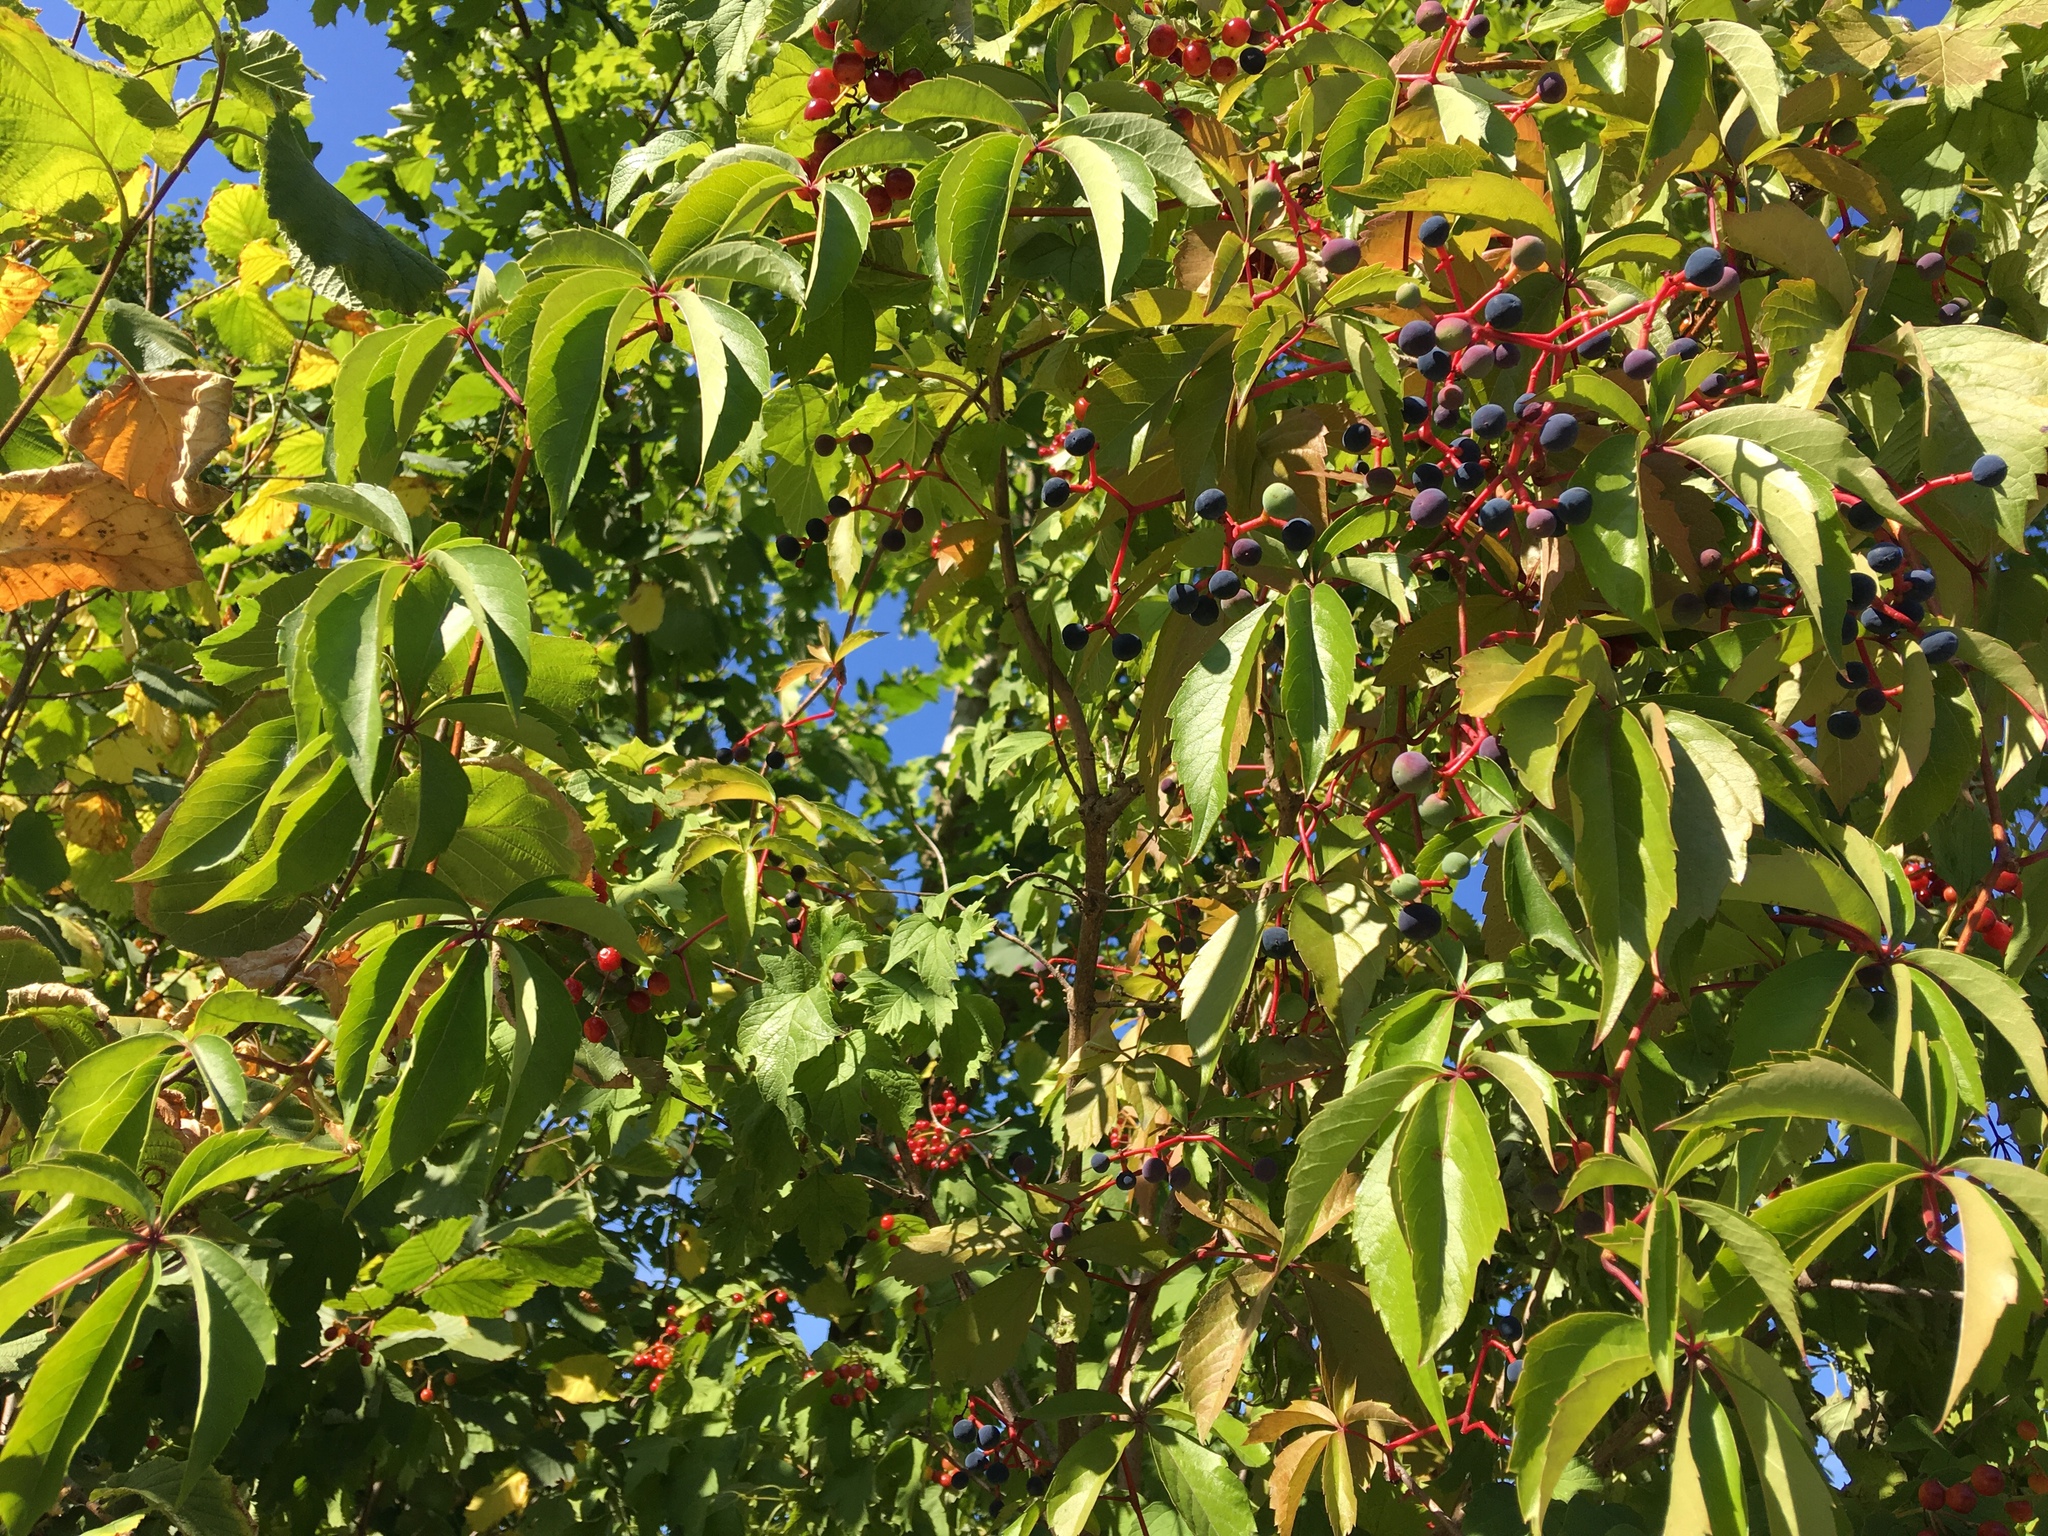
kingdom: Plantae
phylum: Tracheophyta
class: Magnoliopsida
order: Vitales
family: Vitaceae
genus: Parthenocissus
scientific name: Parthenocissus quinquefolia
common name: Virginia-creeper
